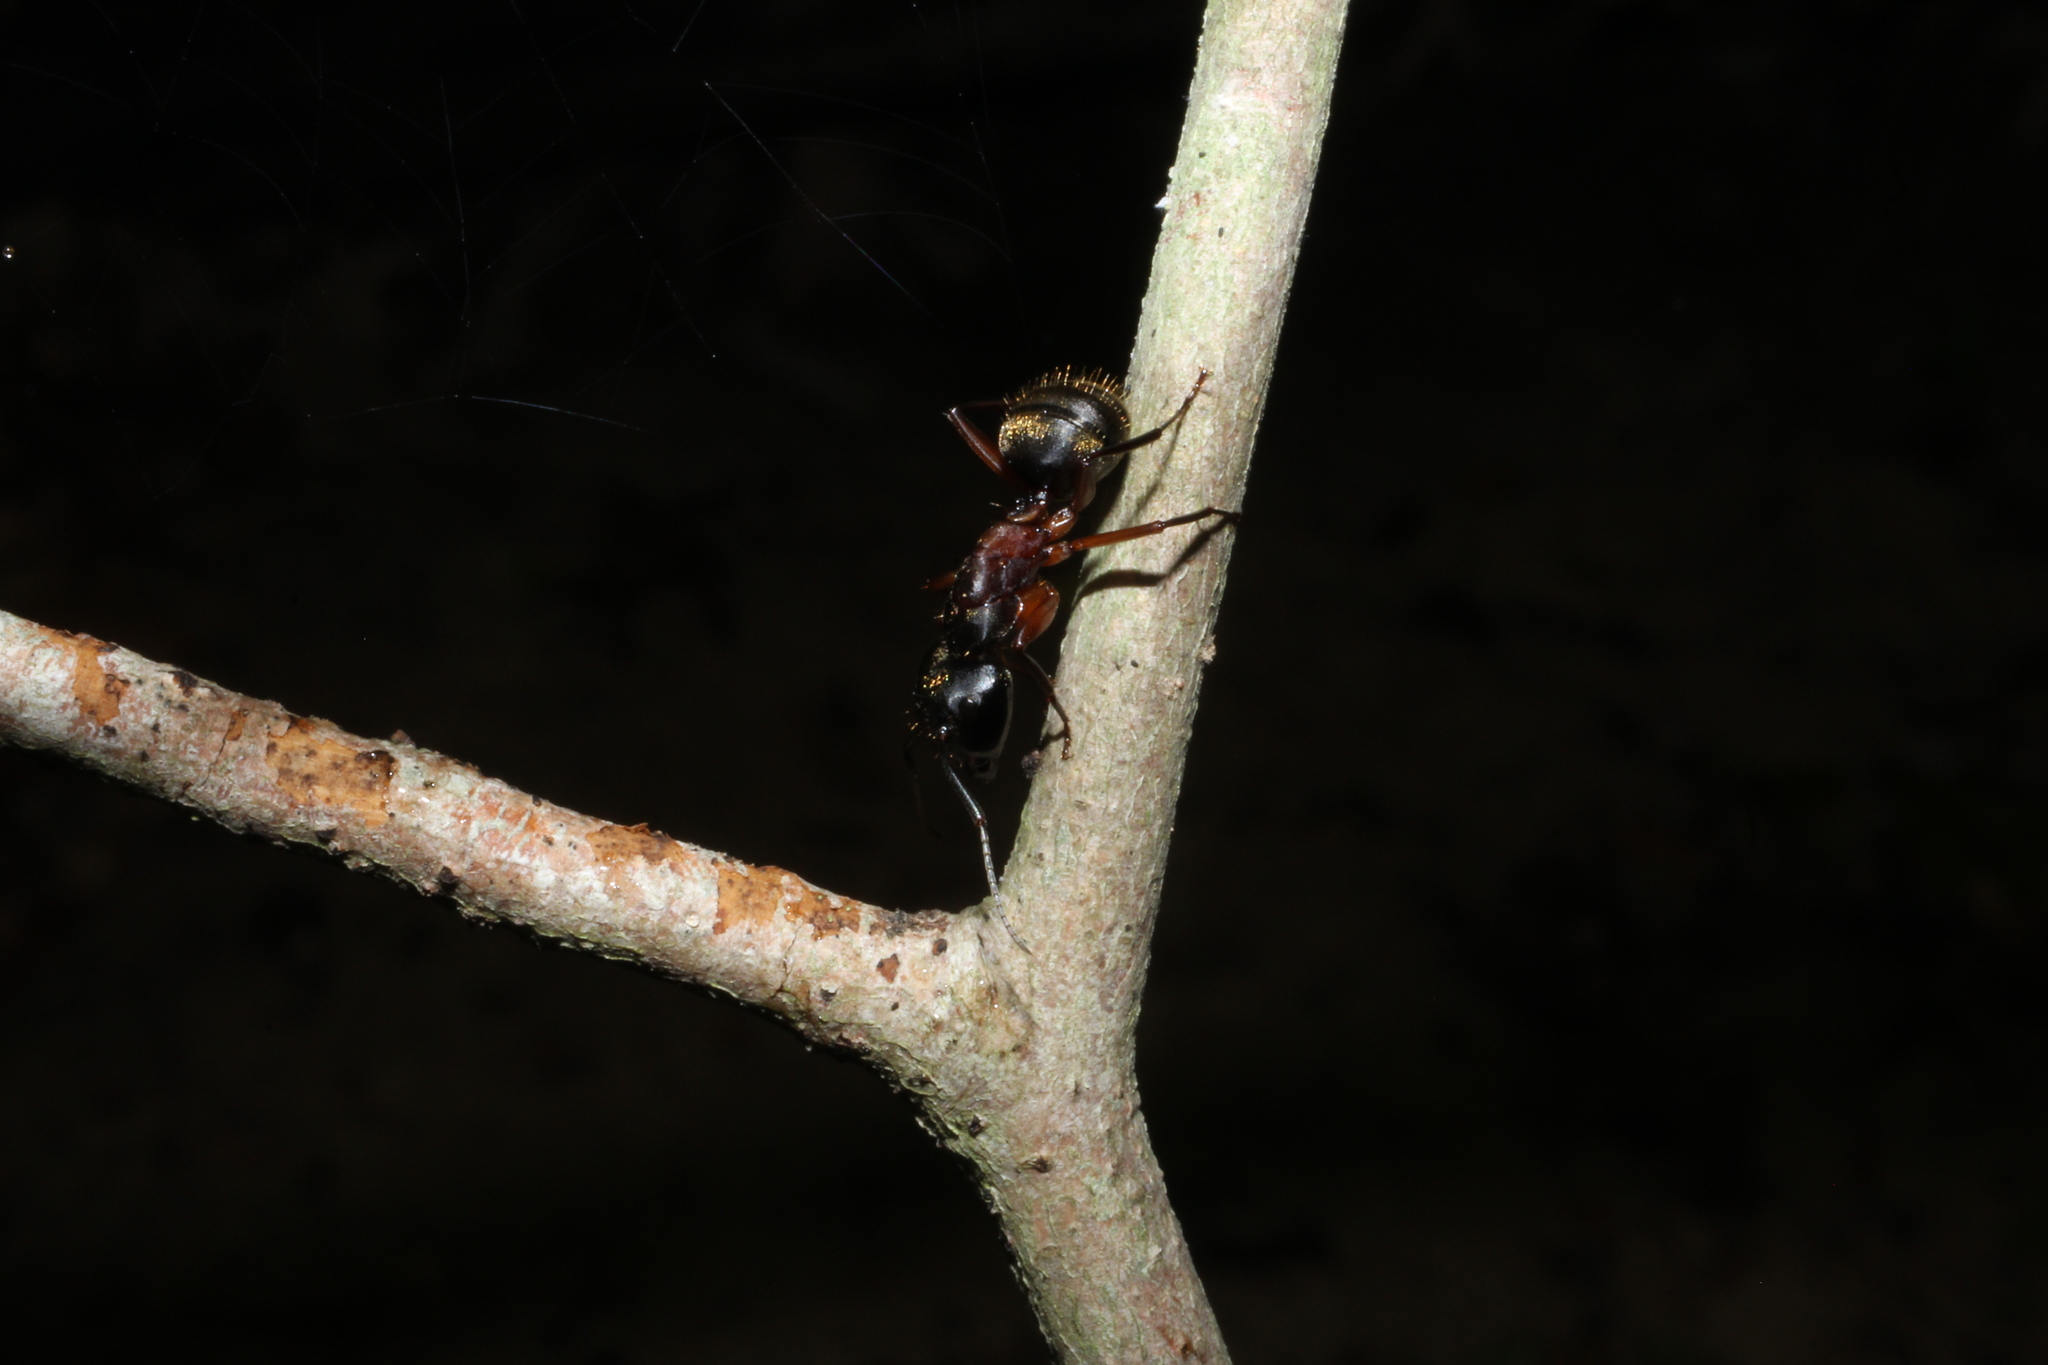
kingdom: Animalia
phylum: Arthropoda
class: Insecta
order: Hymenoptera
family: Formicidae
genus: Camponotus
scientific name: Camponotus chromaiodes
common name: Red carpenter ant
